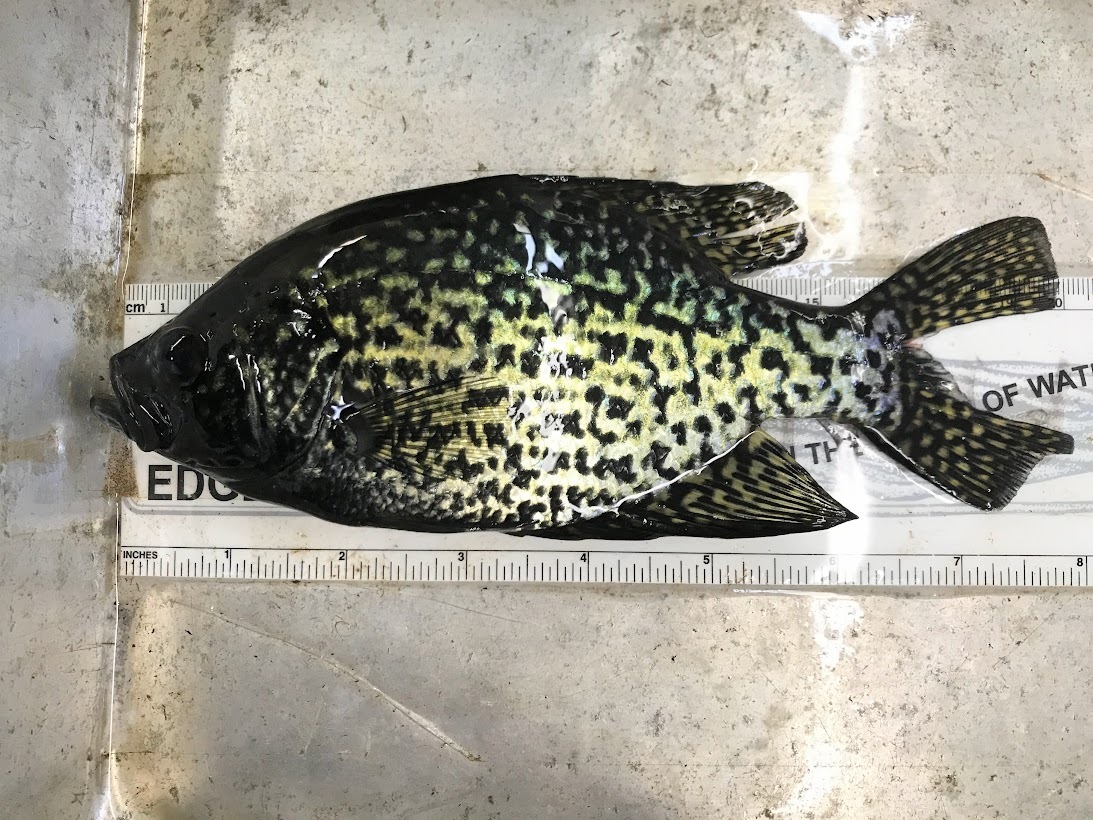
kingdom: Animalia
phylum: Chordata
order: Perciformes
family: Centrarchidae
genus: Pomoxis
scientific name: Pomoxis nigromaculatus
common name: Black crappie
